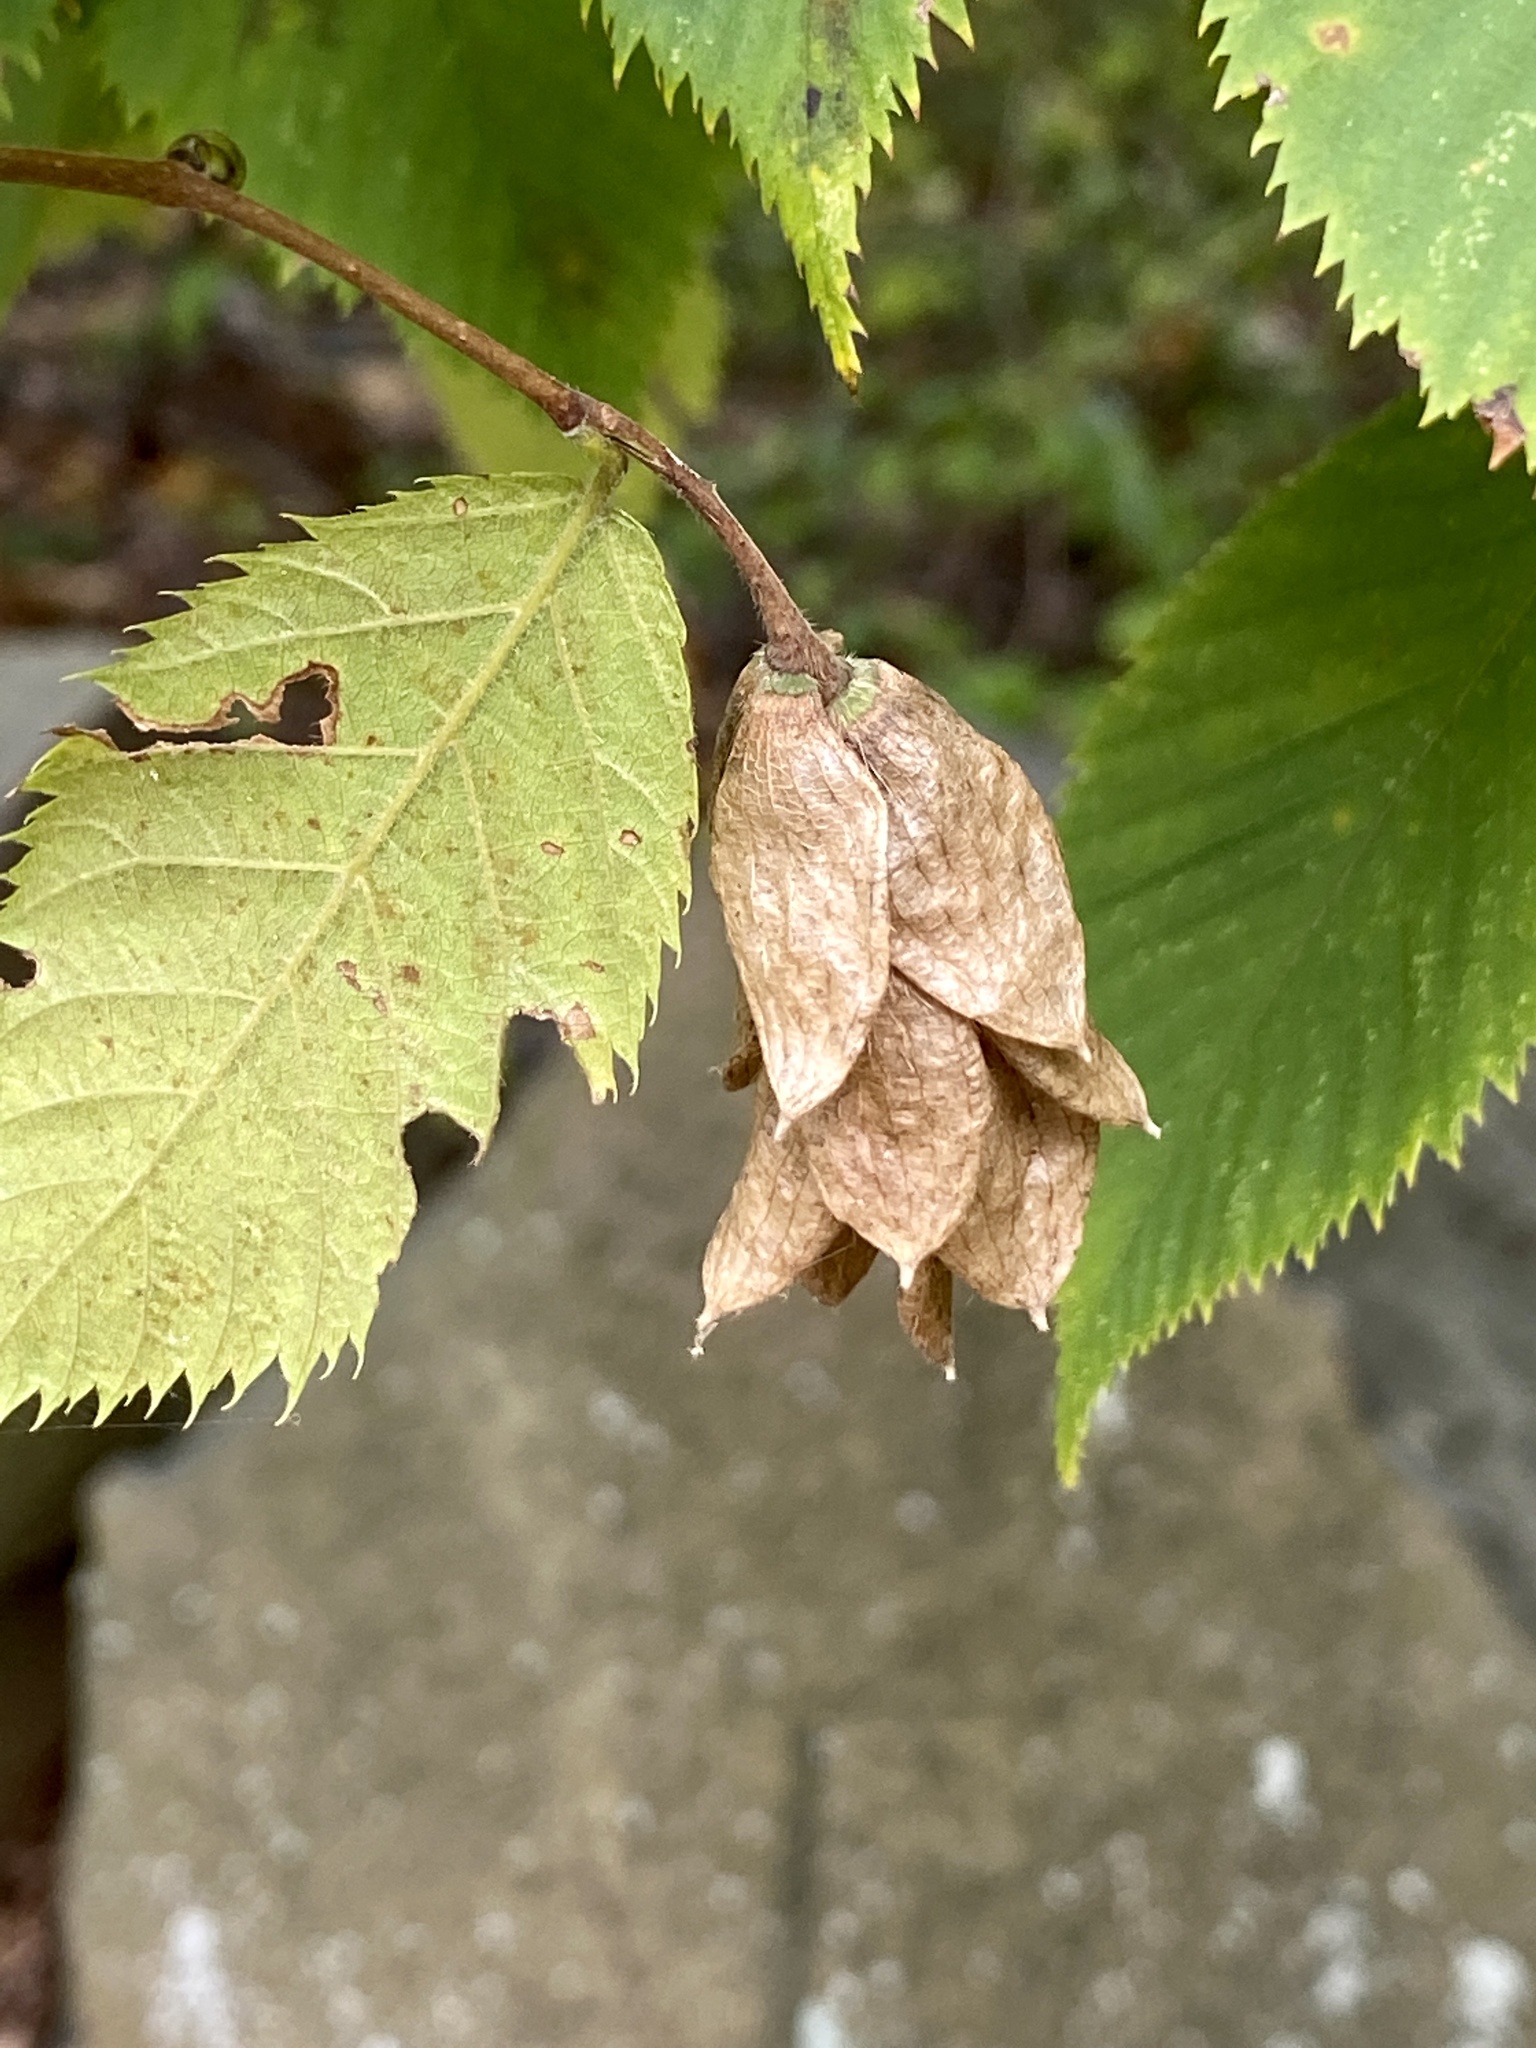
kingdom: Plantae
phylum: Tracheophyta
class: Magnoliopsida
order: Fagales
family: Betulaceae
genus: Ostrya
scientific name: Ostrya virginiana
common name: Ironwood
